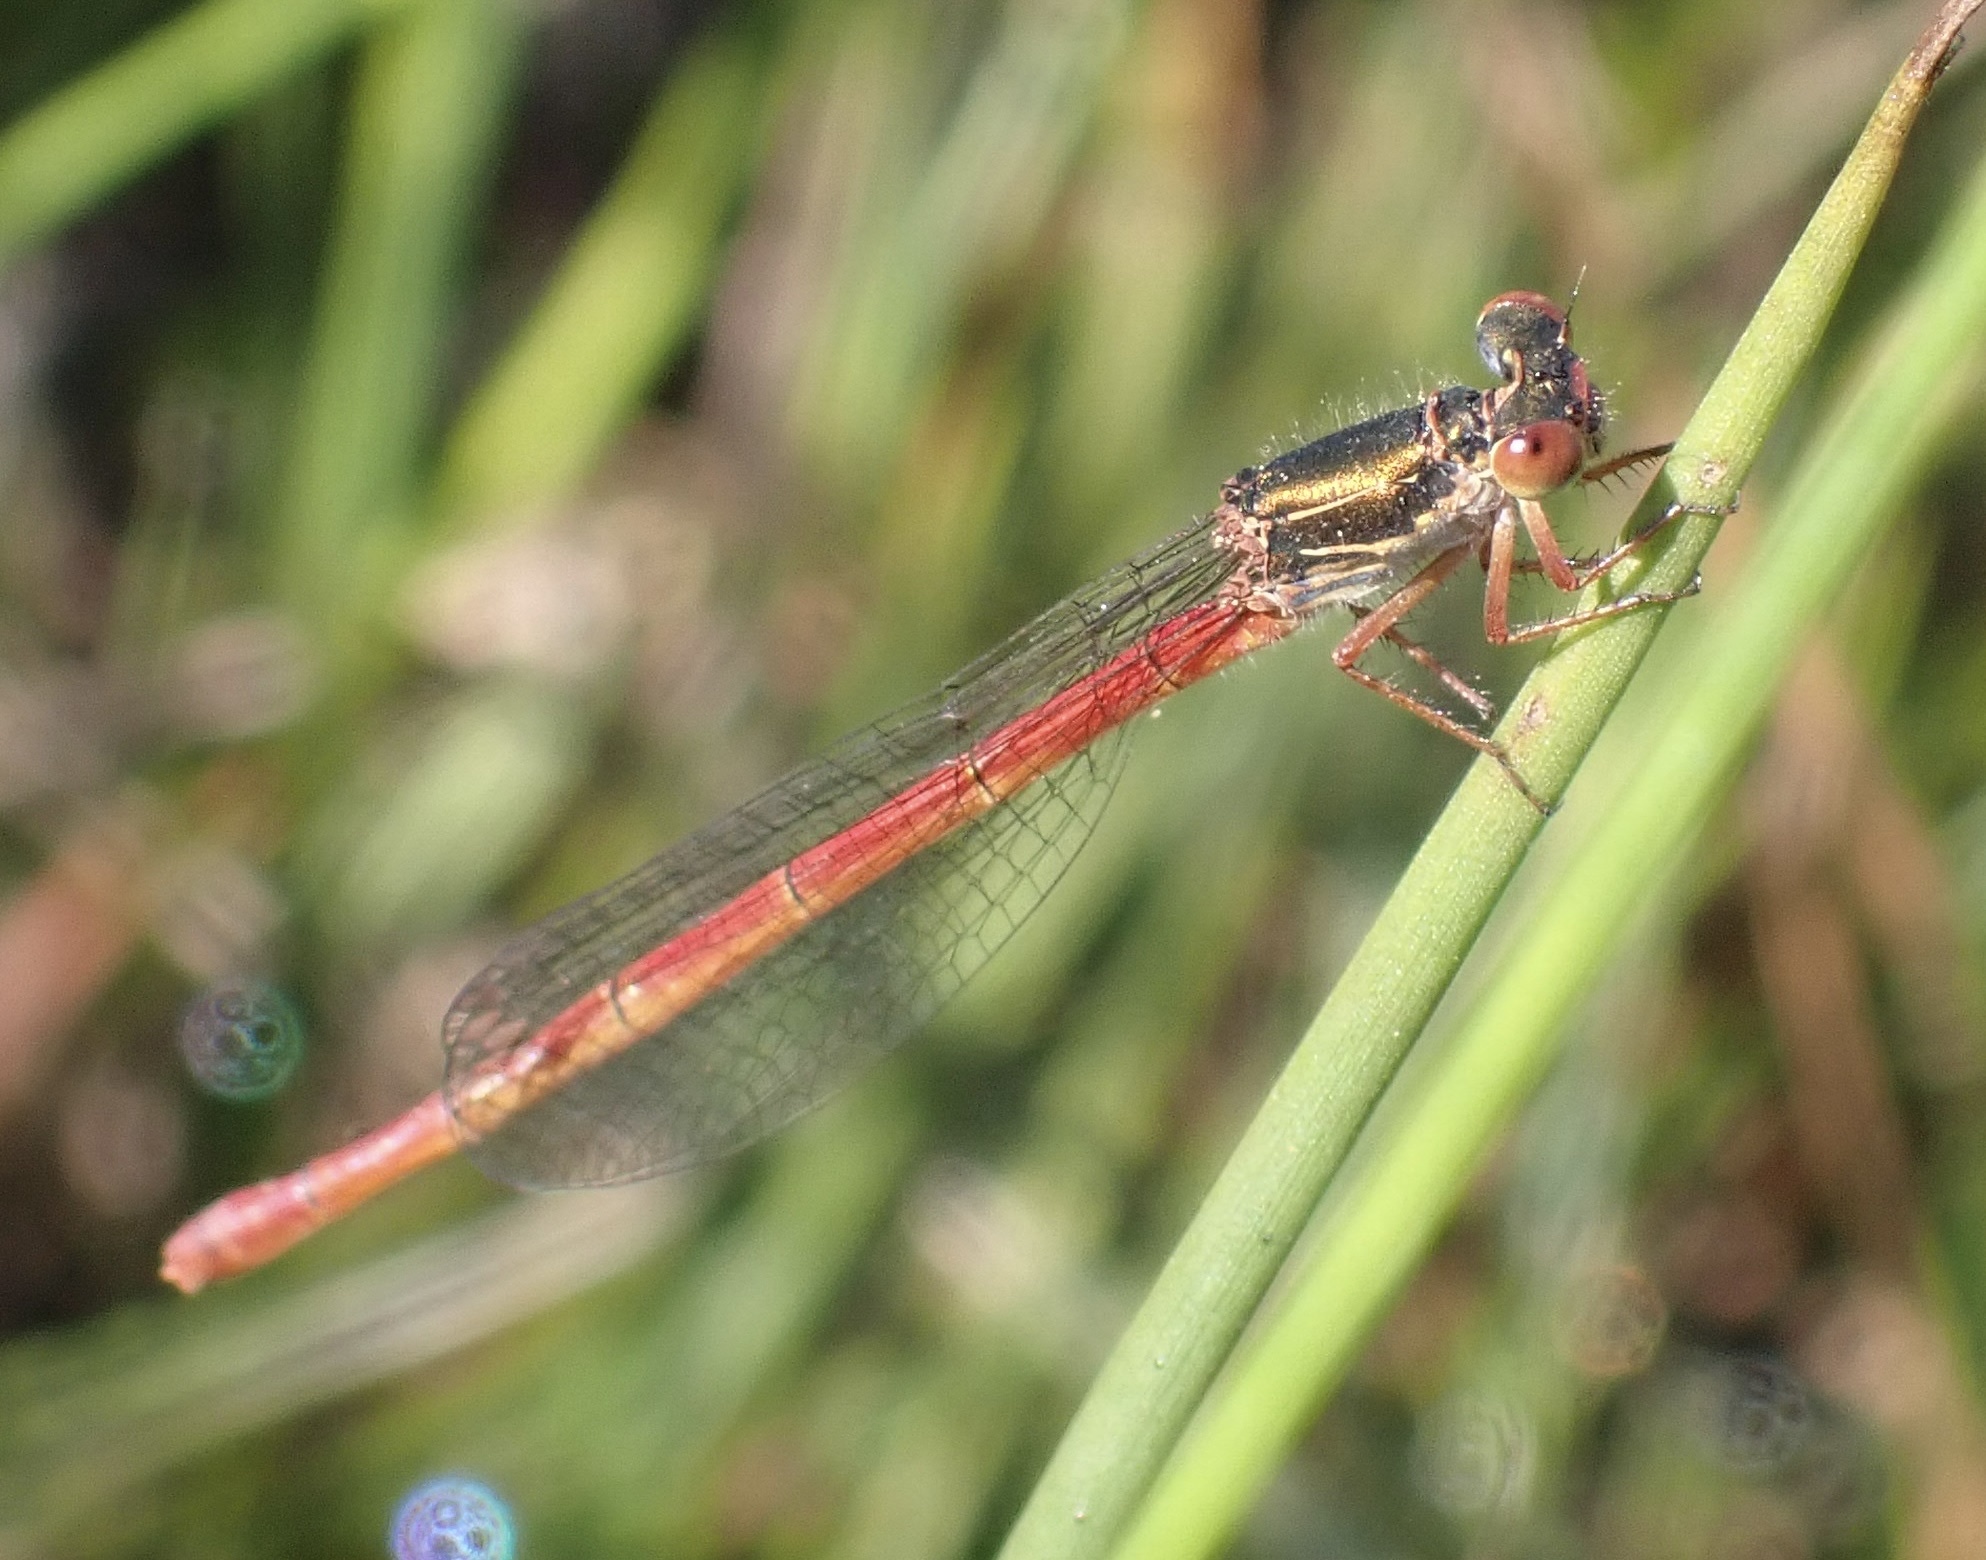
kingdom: Animalia
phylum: Arthropoda
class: Insecta
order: Odonata
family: Coenagrionidae
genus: Ceriagrion
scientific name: Ceriagrion tenellum
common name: Small red damselfly
